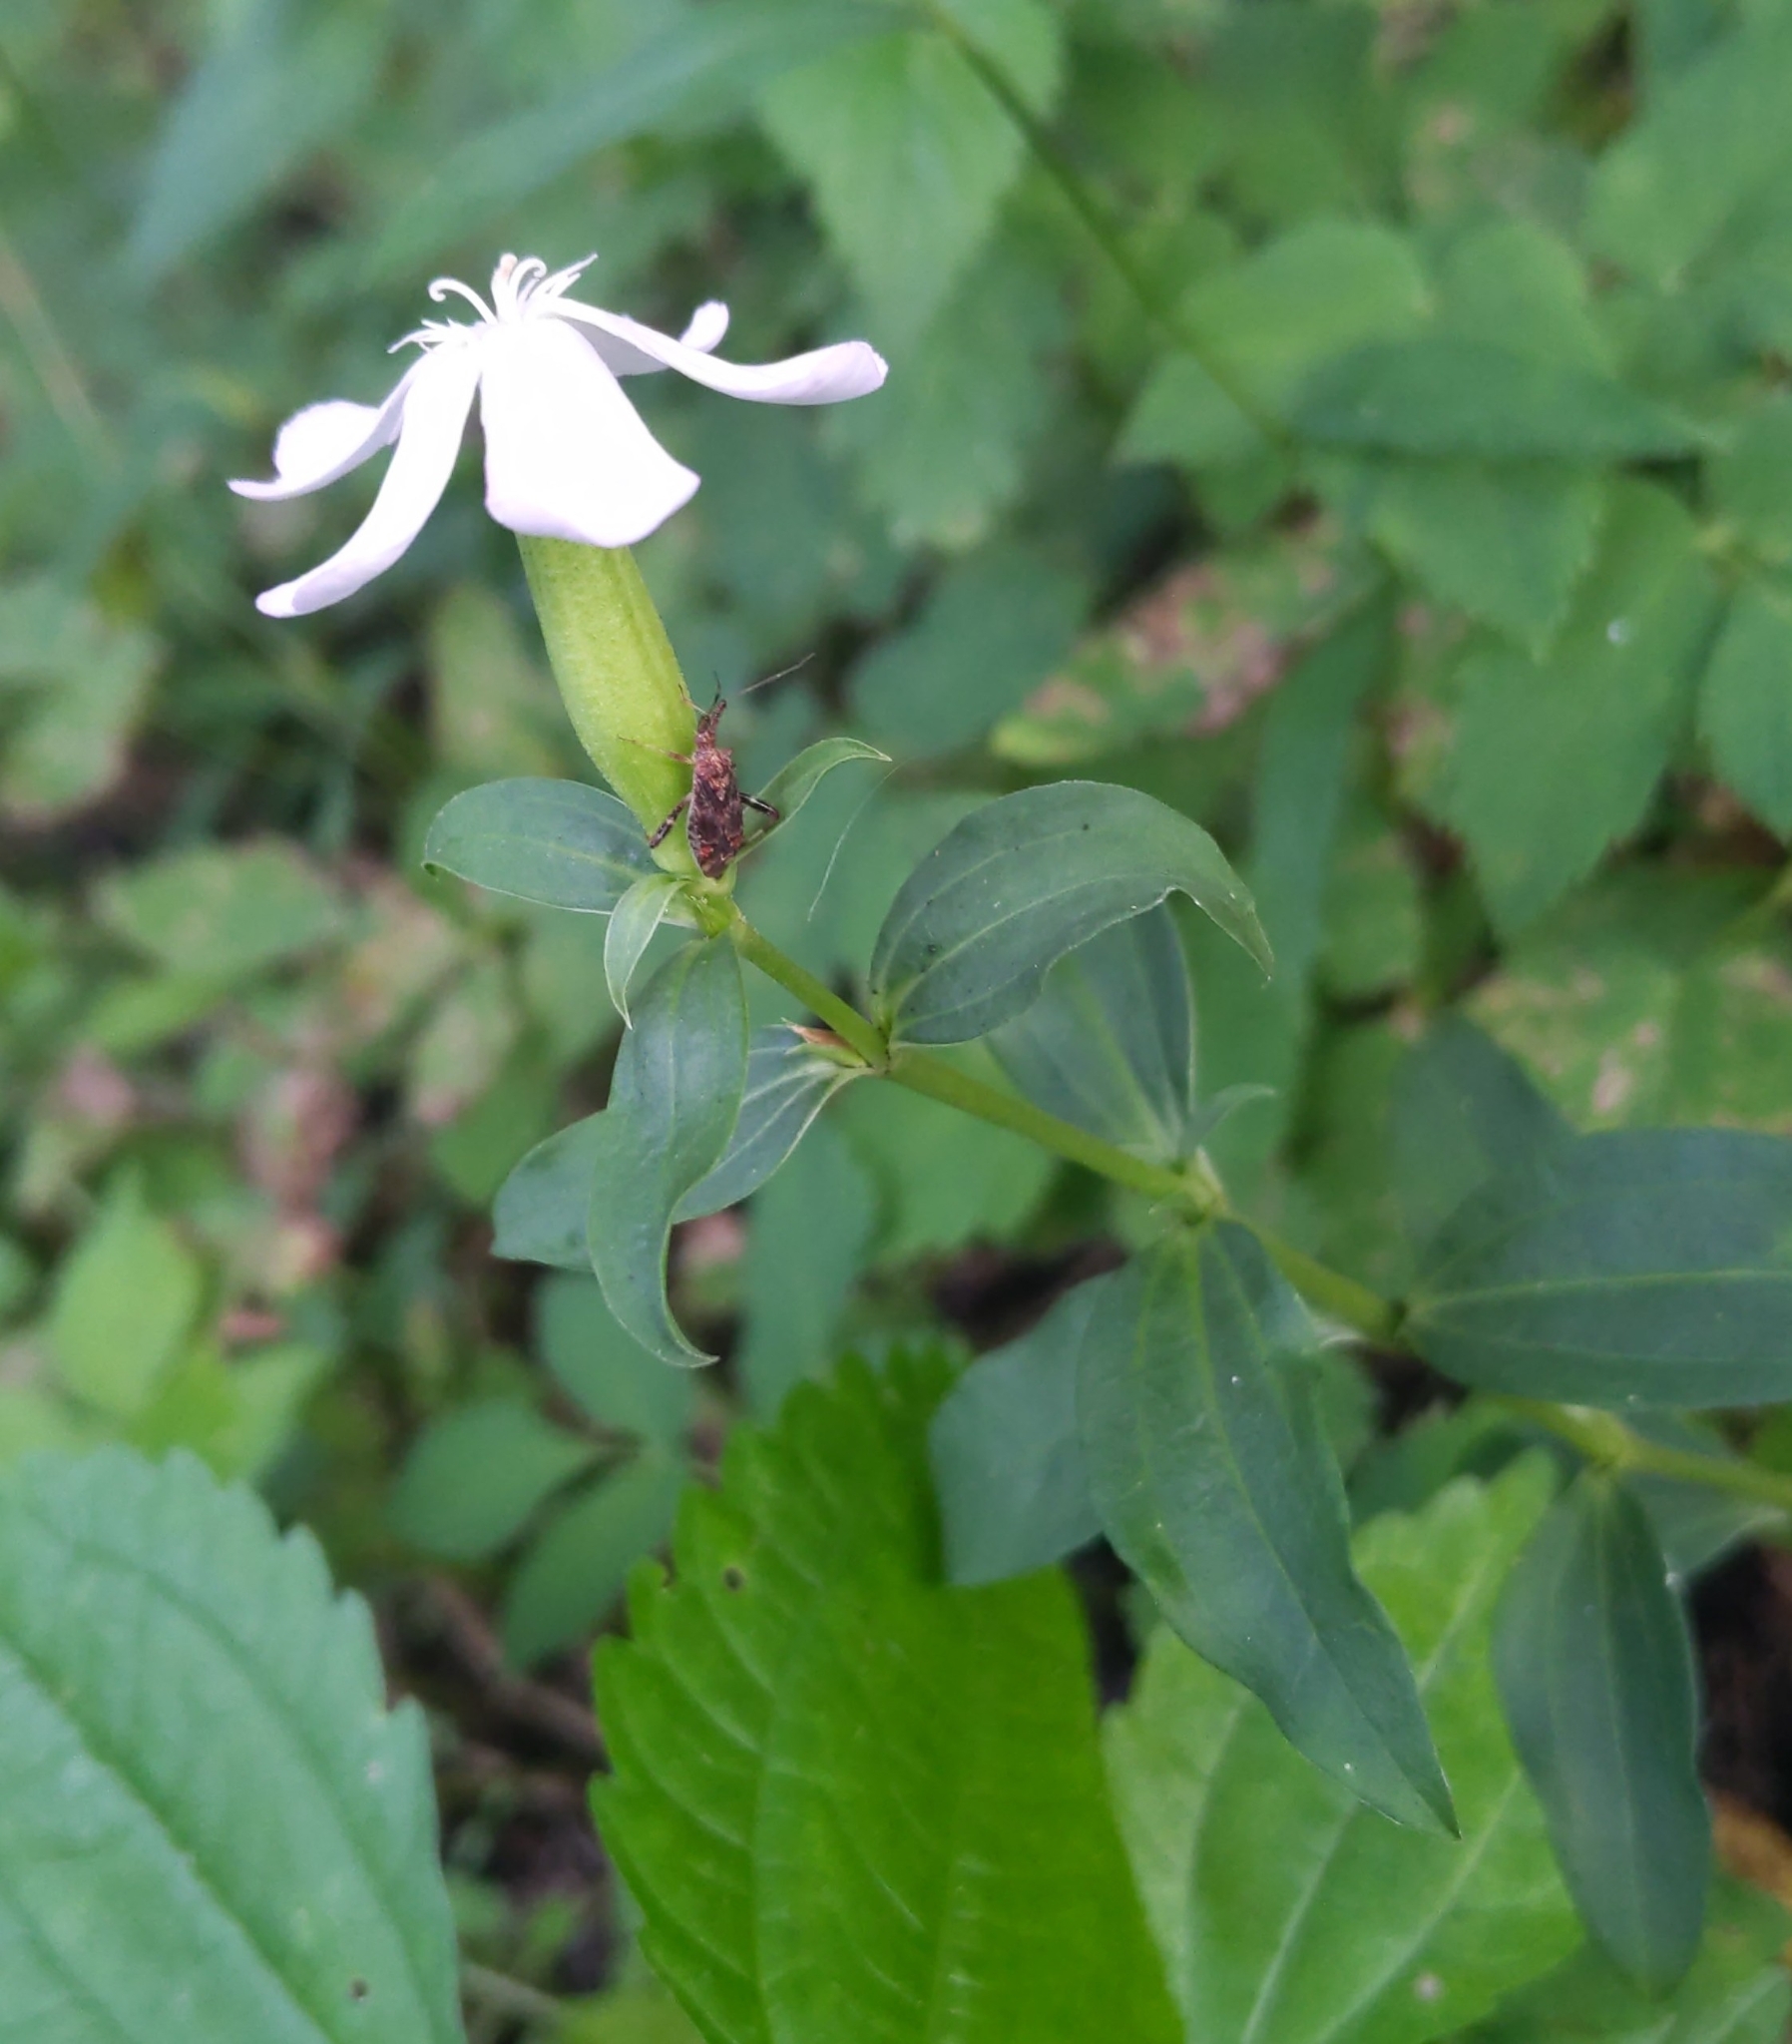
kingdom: Plantae
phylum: Tracheophyta
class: Magnoliopsida
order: Caryophyllales
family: Caryophyllaceae
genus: Saponaria
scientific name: Saponaria officinalis
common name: Soapwort
